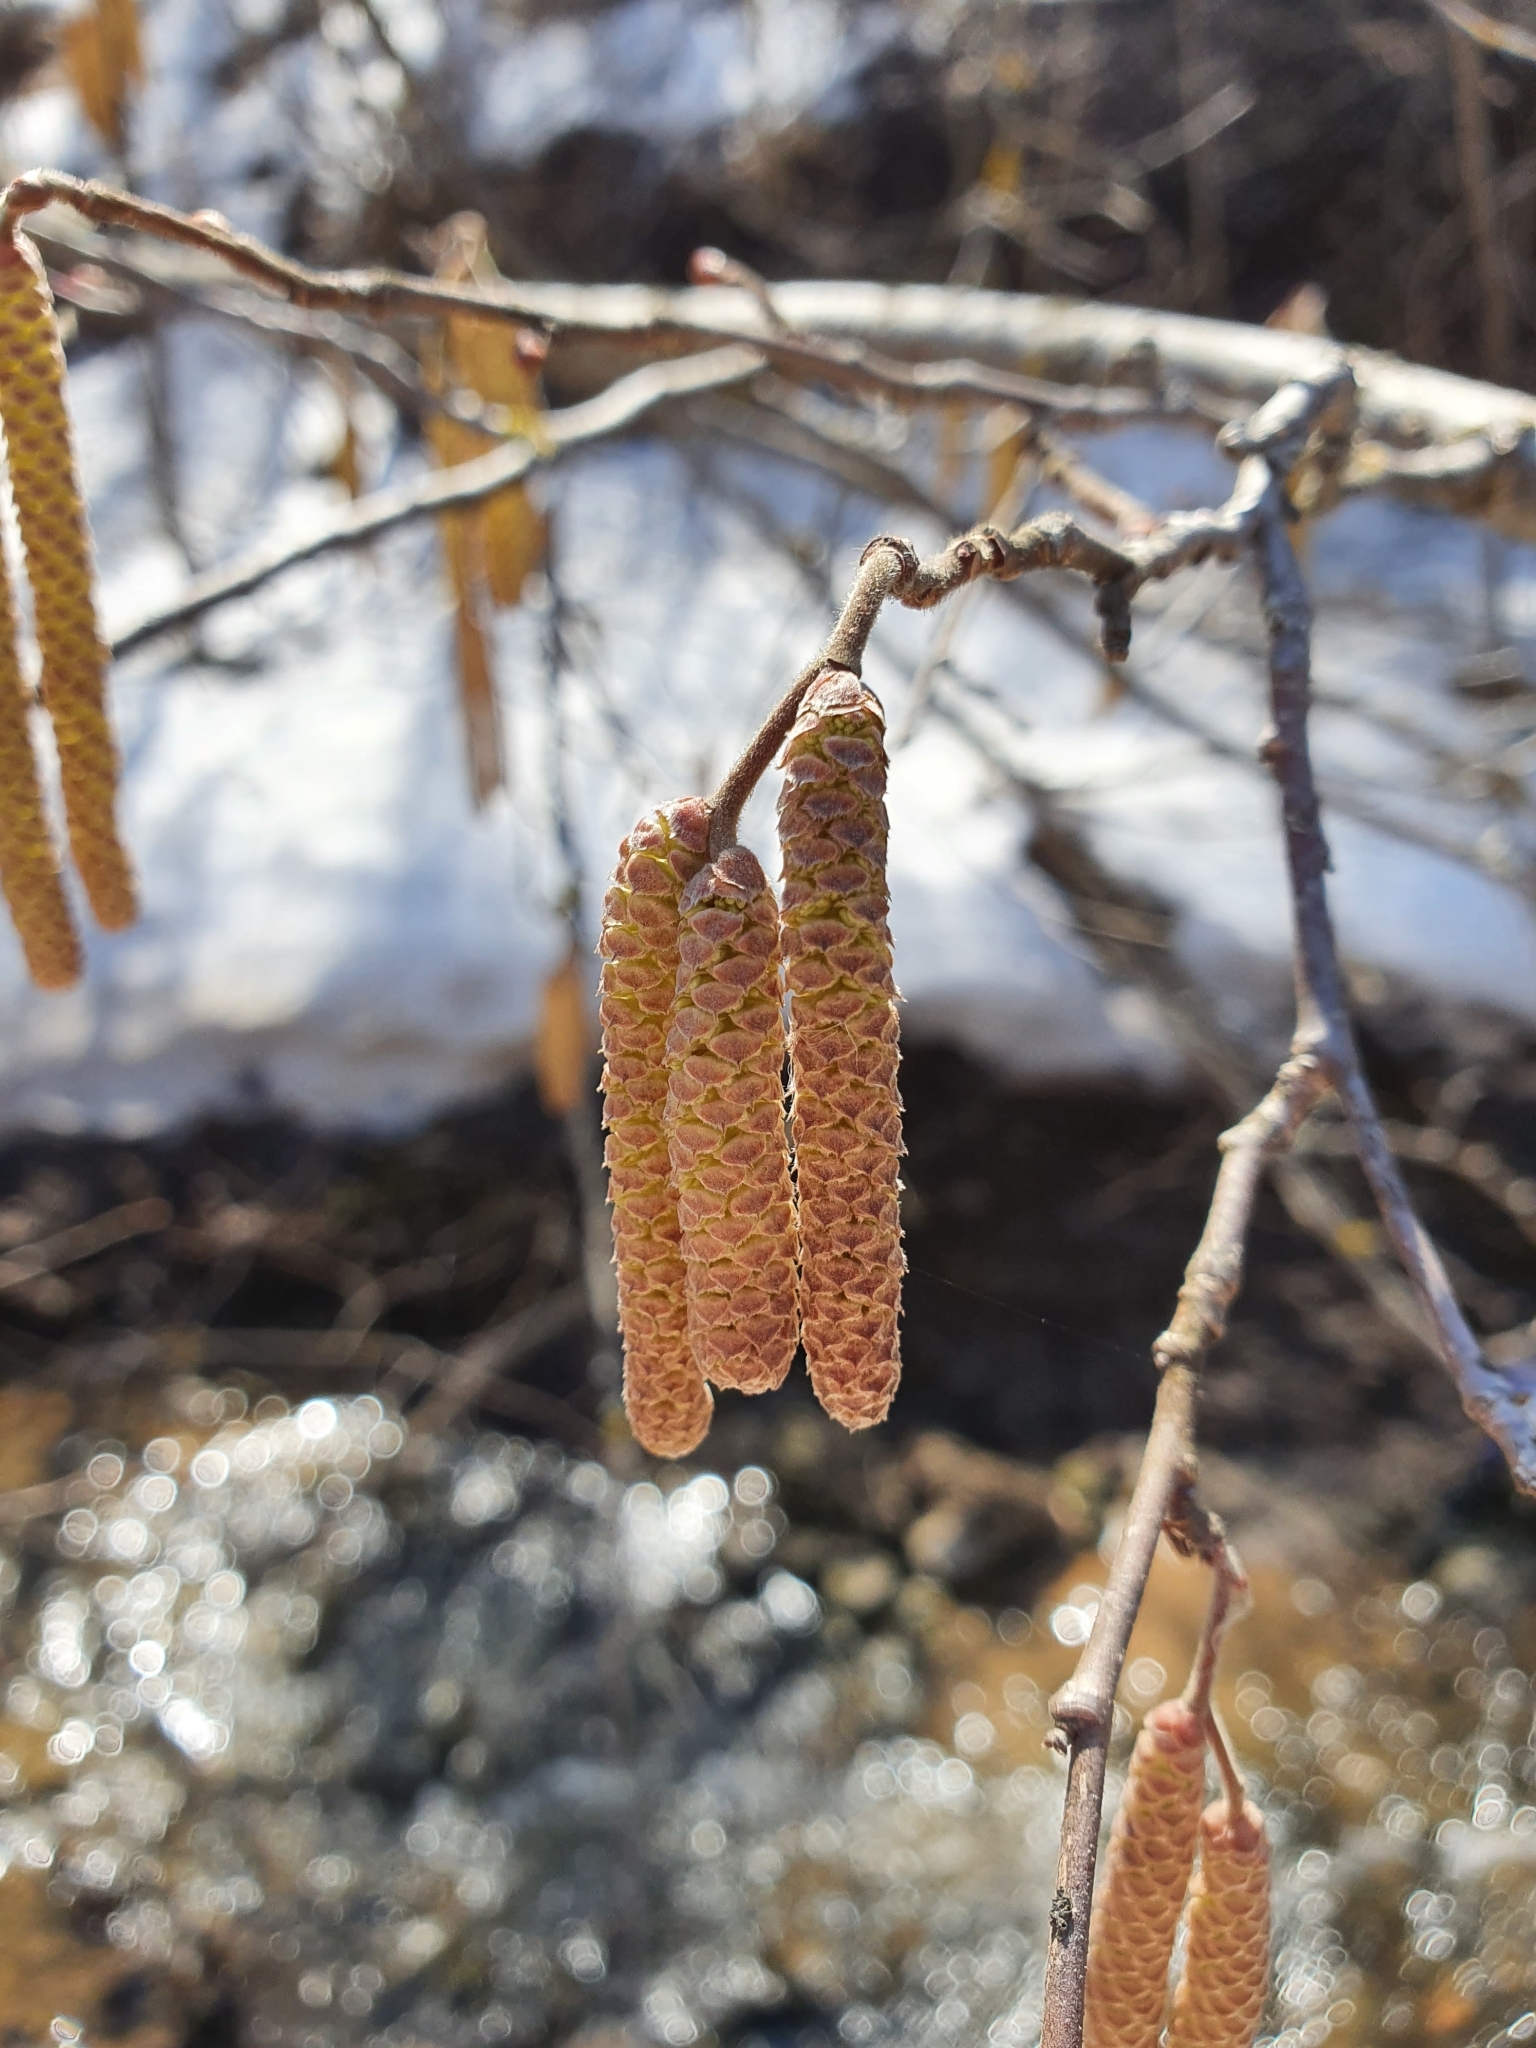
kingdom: Plantae
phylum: Tracheophyta
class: Magnoliopsida
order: Fagales
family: Betulaceae
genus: Corylus
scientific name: Corylus avellana
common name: European hazel
